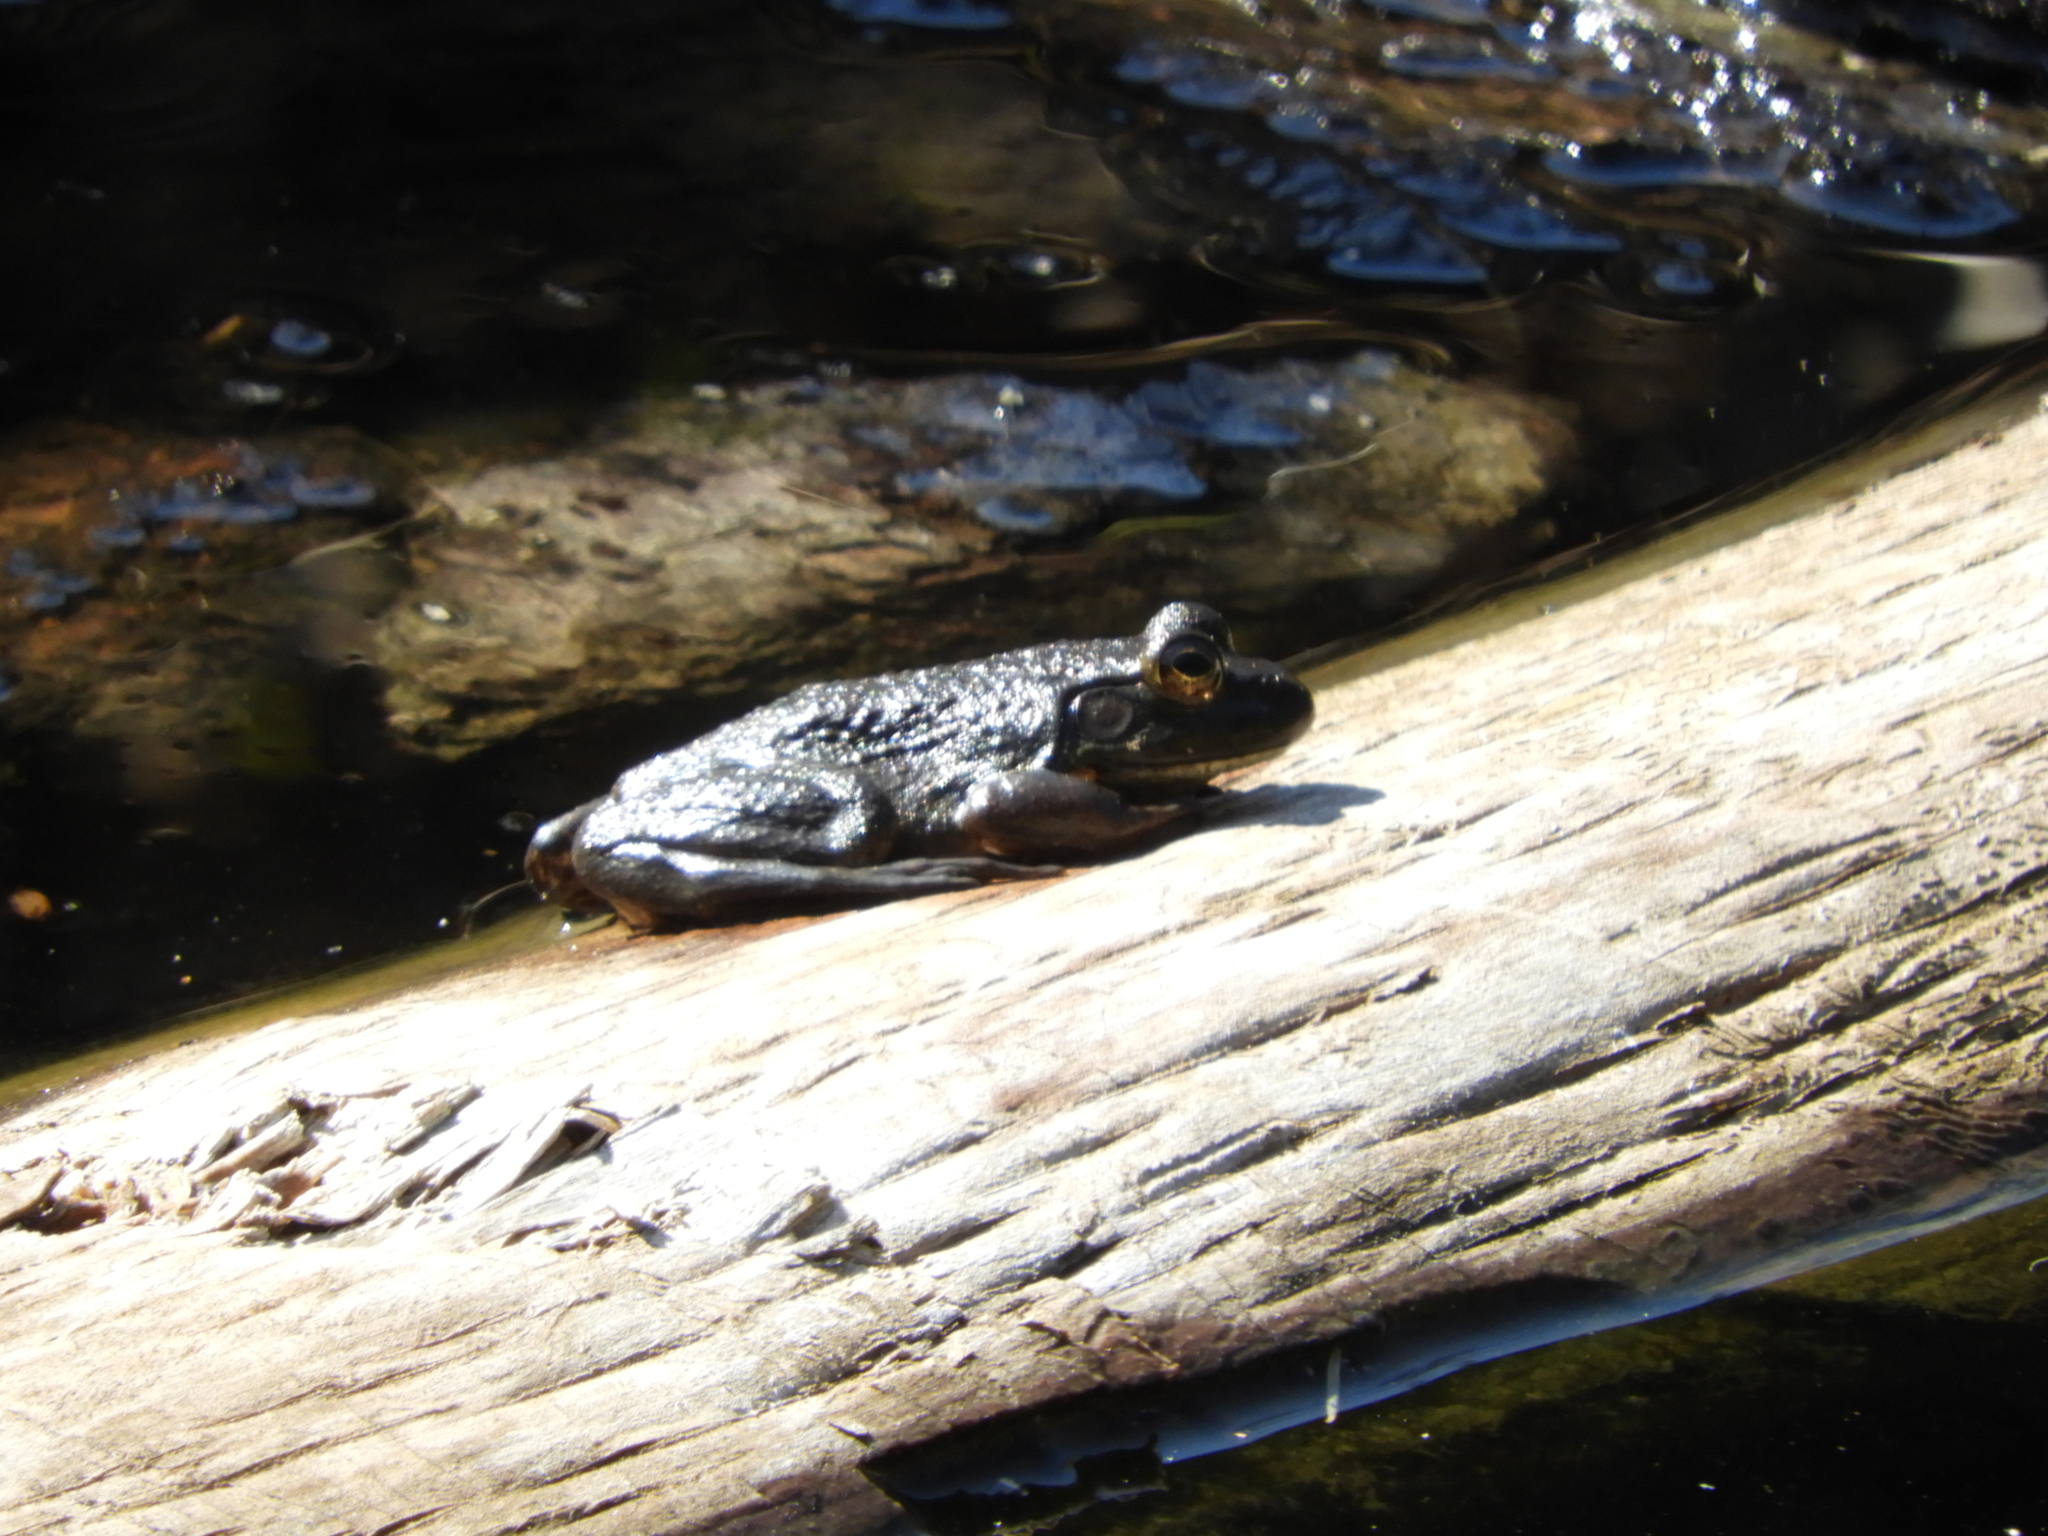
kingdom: Animalia
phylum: Chordata
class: Amphibia
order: Anura
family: Ranidae
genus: Lithobates
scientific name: Lithobates catesbeianus
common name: American bullfrog
